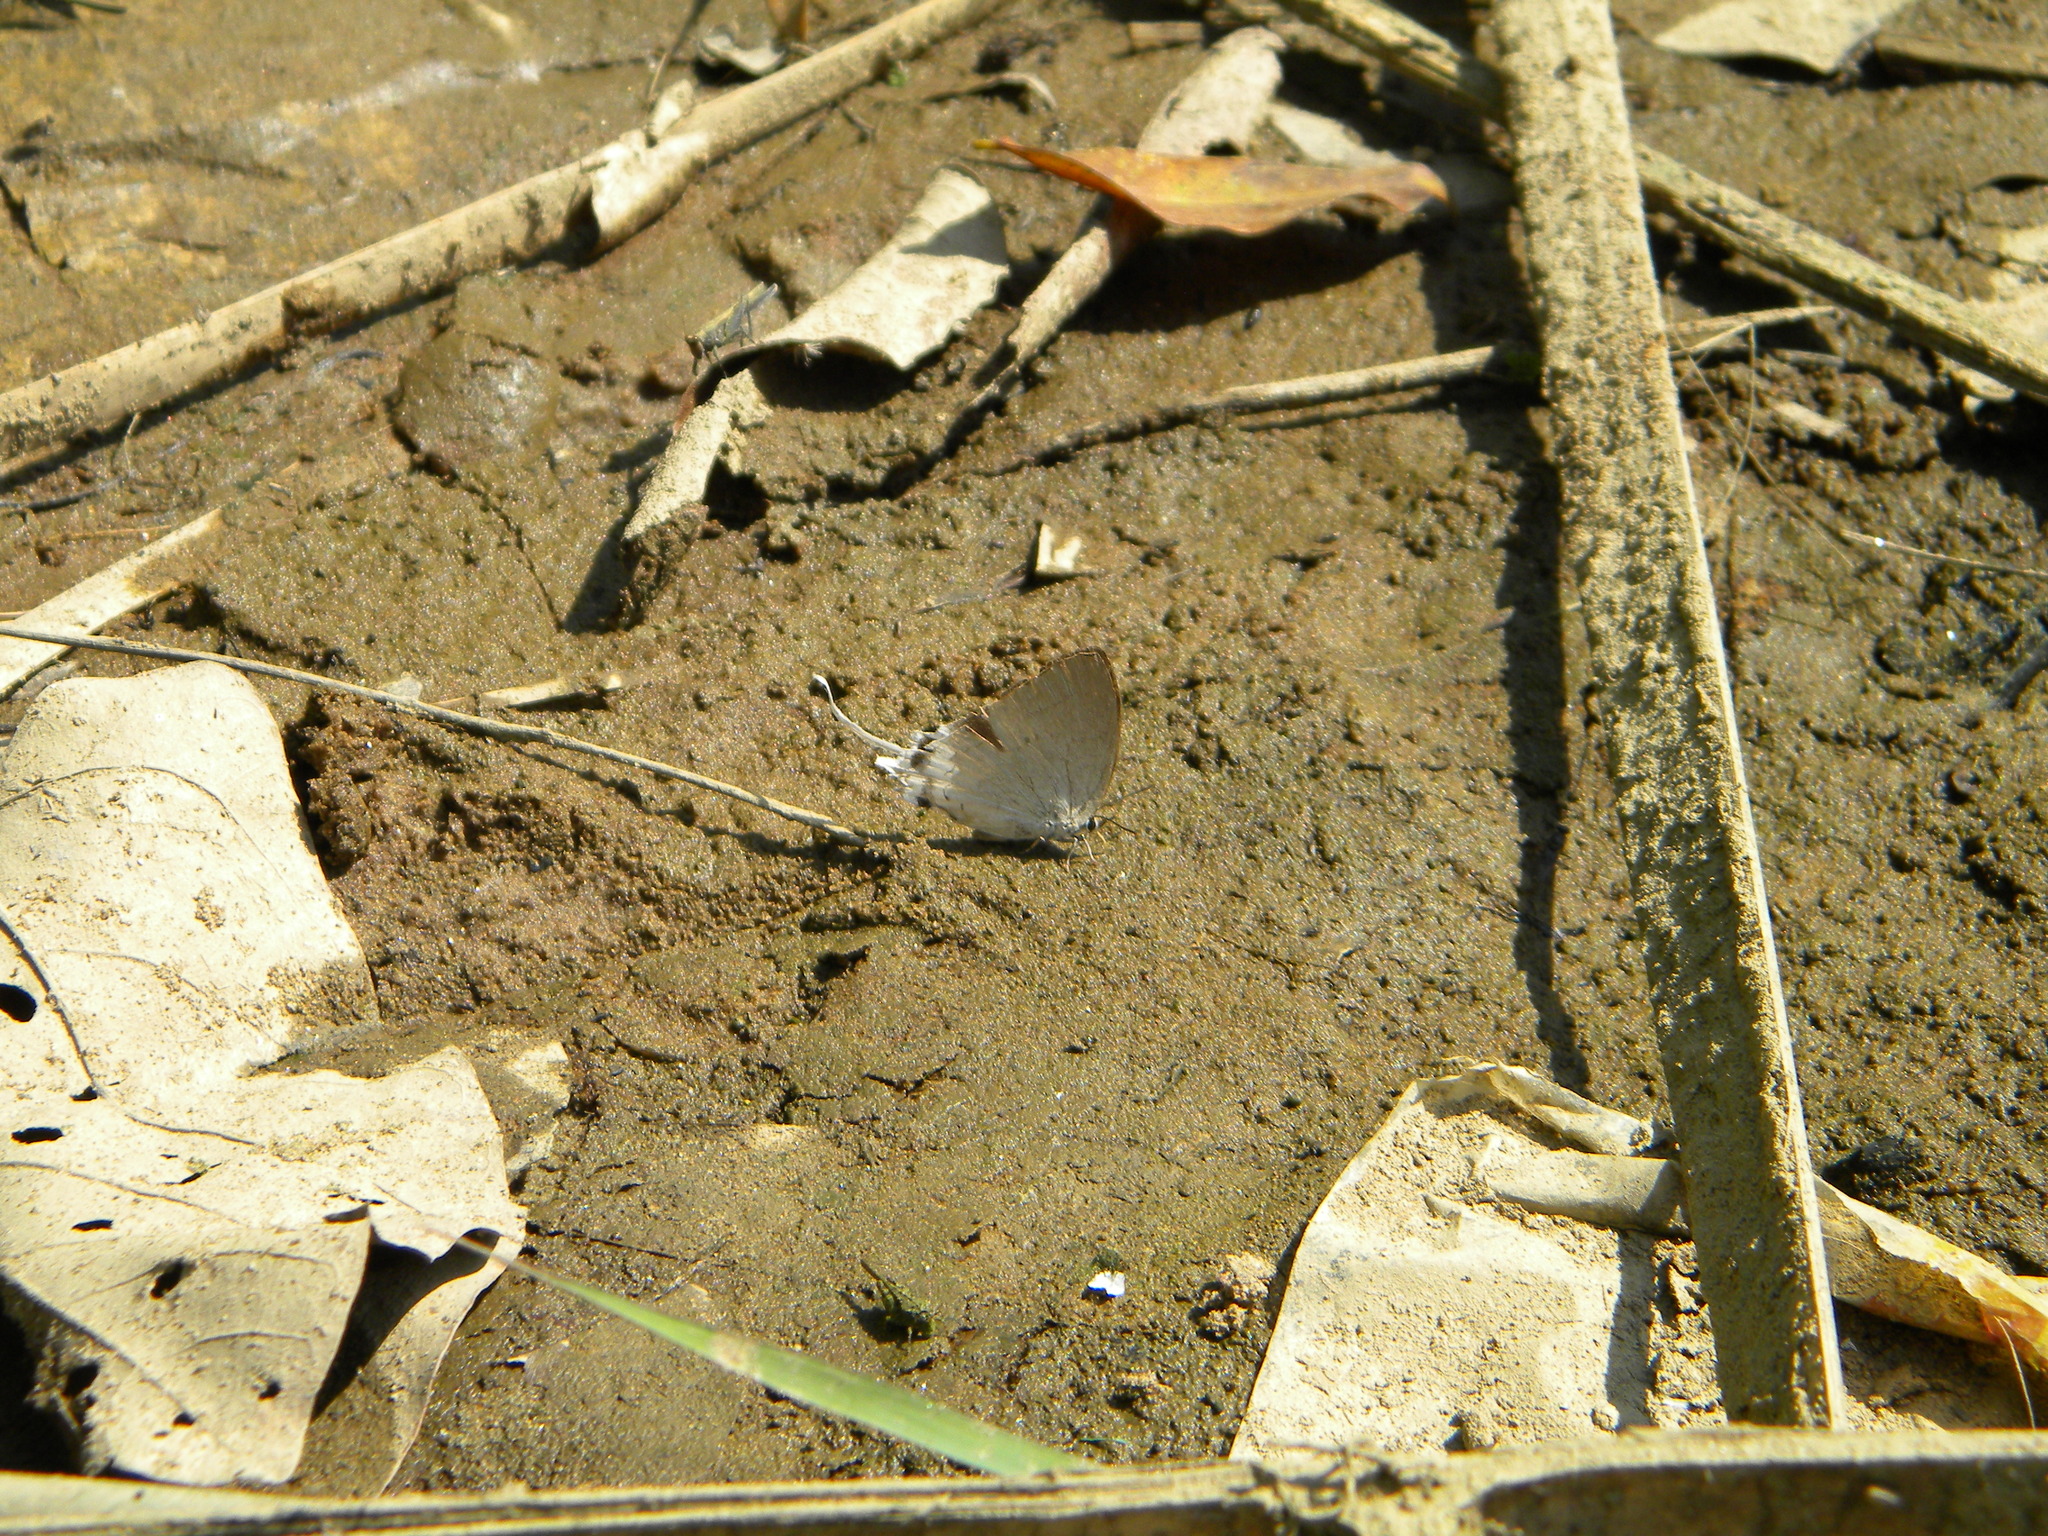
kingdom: Animalia
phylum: Arthropoda
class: Insecta
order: Lepidoptera
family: Lycaenidae
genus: Cheritra
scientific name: Cheritra freja
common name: Common imperial
